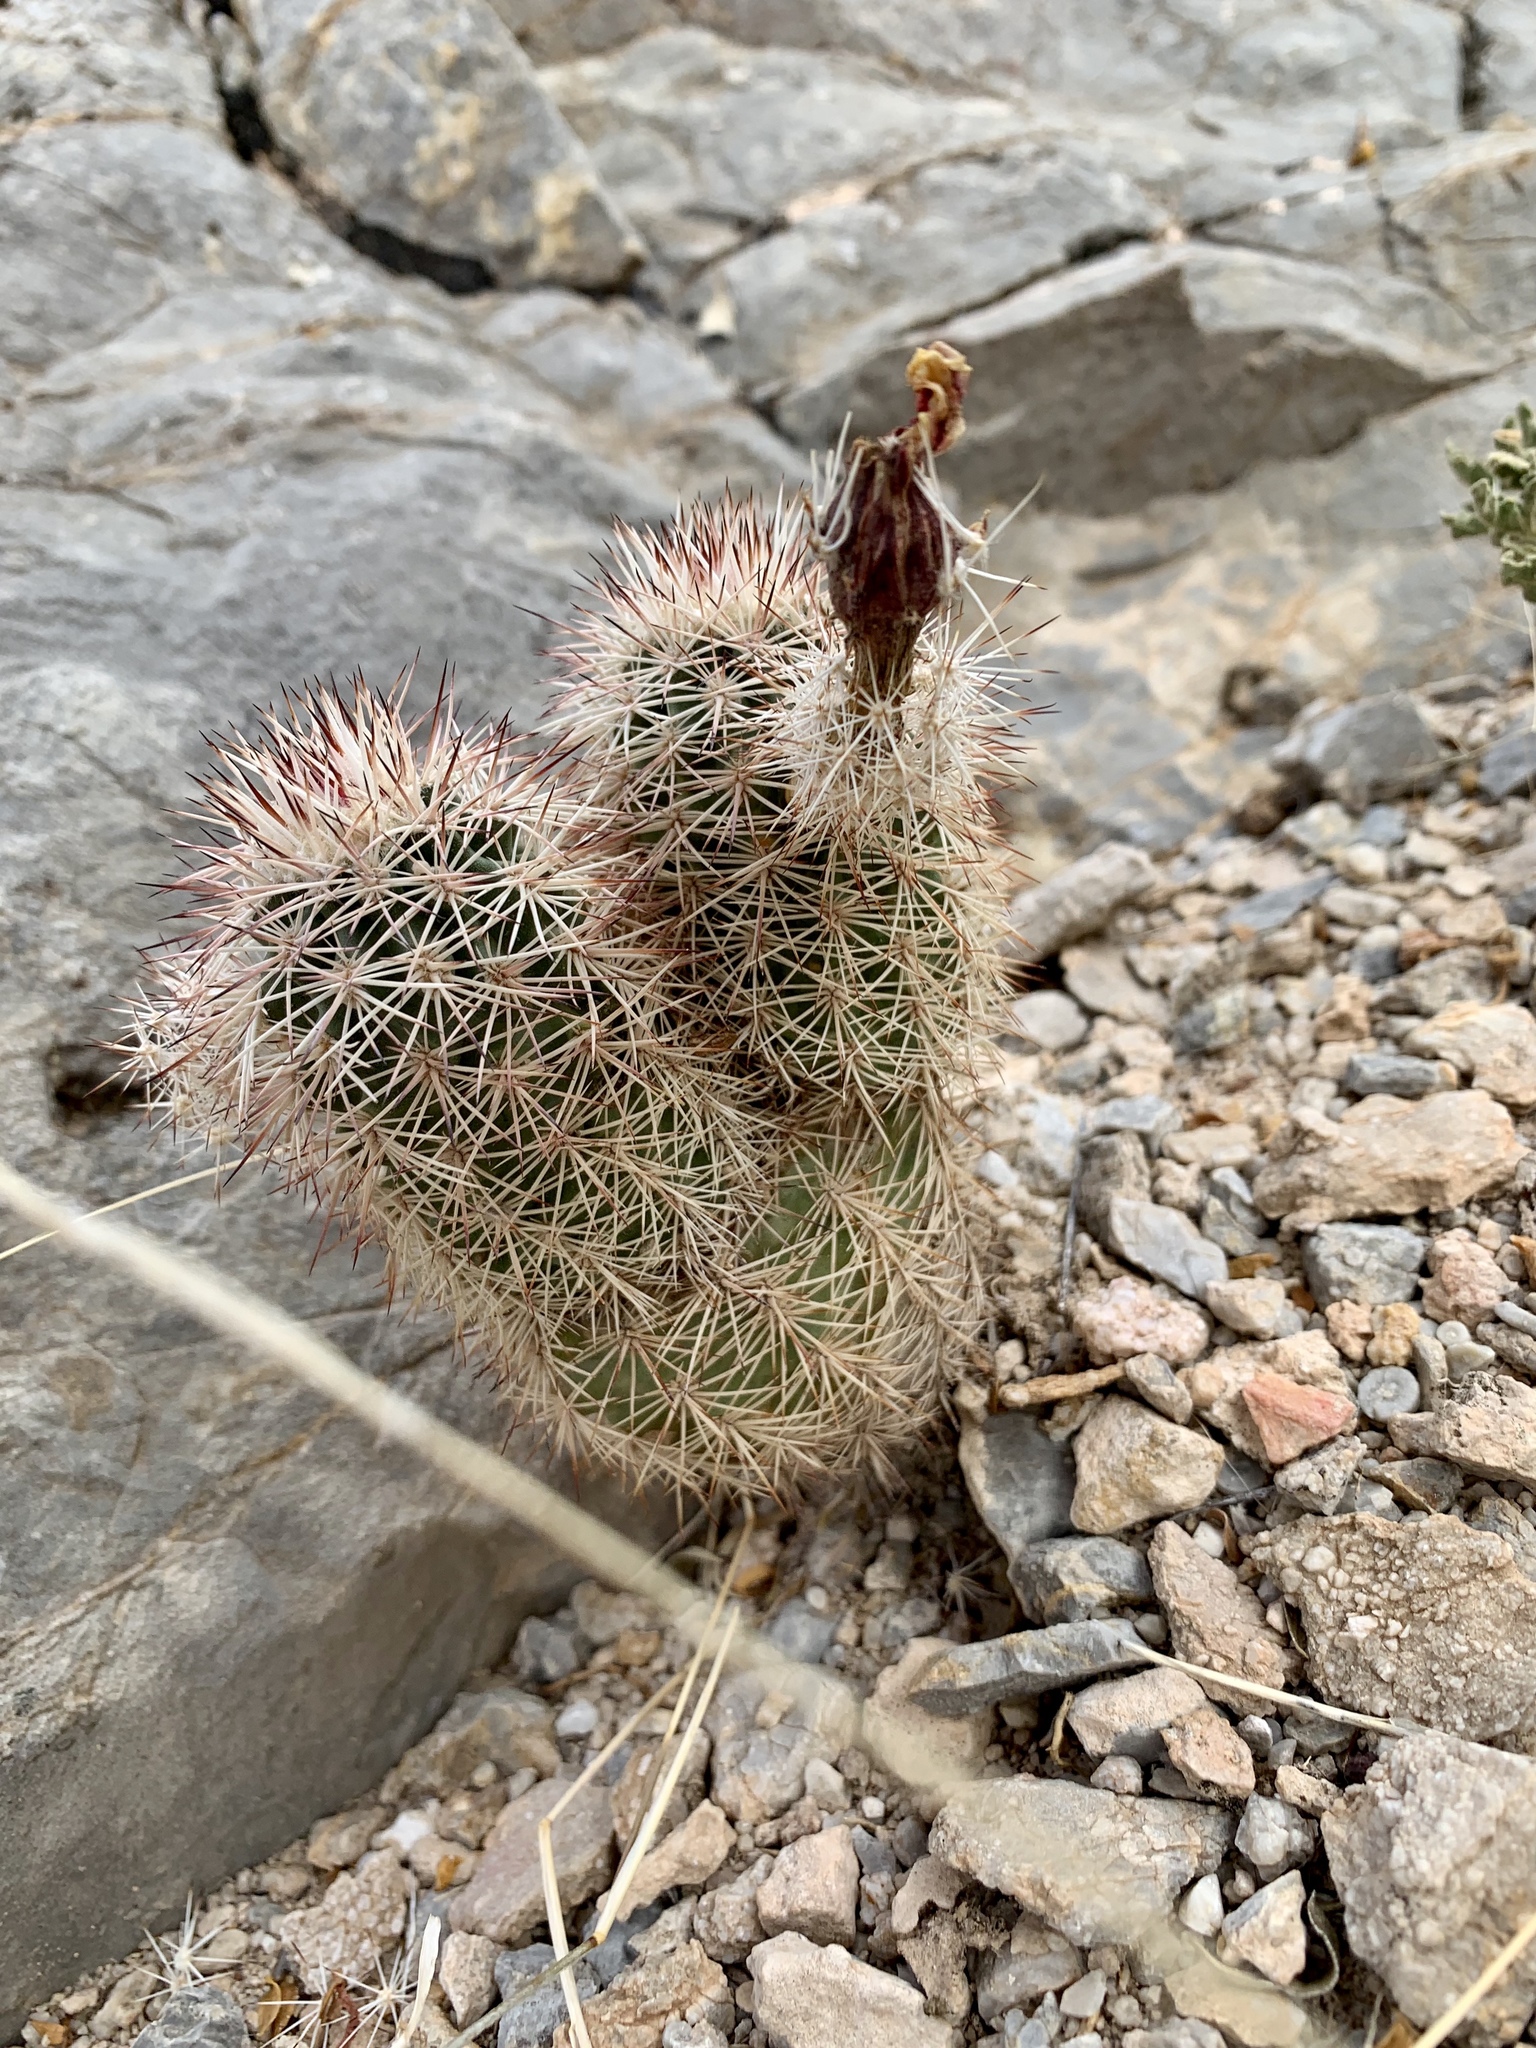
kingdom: Plantae
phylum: Tracheophyta
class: Magnoliopsida
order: Caryophyllales
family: Cactaceae
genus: Echinocereus
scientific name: Echinocereus roetteri
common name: Lloyd's hedgehog cactus
